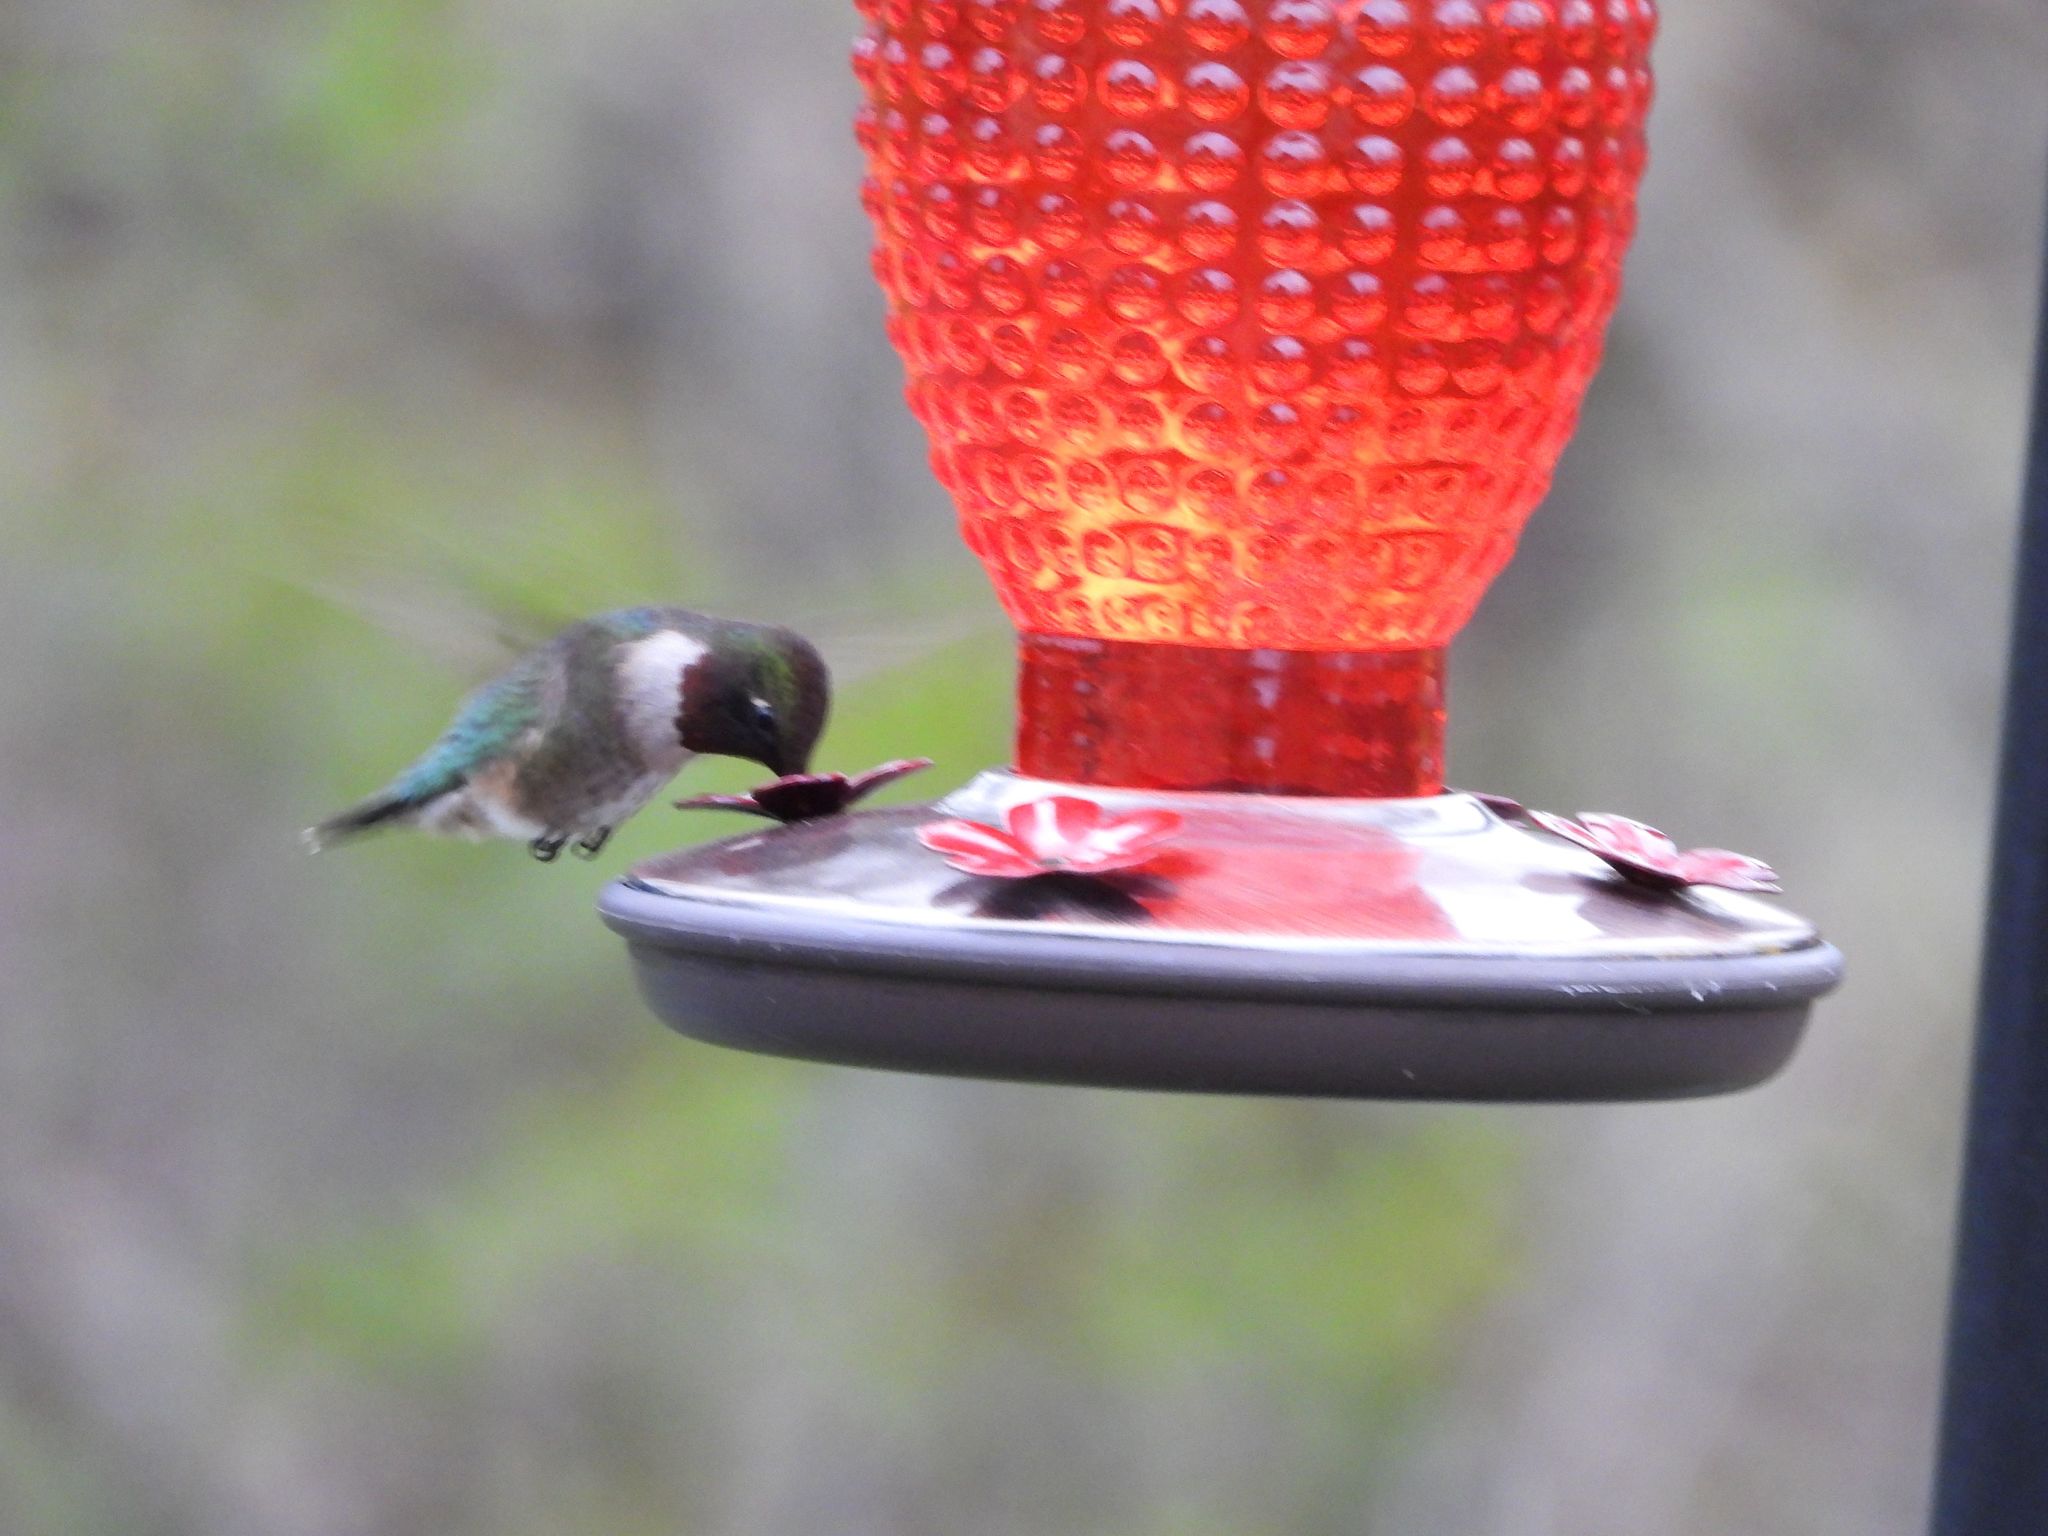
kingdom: Animalia
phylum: Chordata
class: Aves
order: Apodiformes
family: Trochilidae
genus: Archilochus
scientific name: Archilochus colubris
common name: Ruby-throated hummingbird
